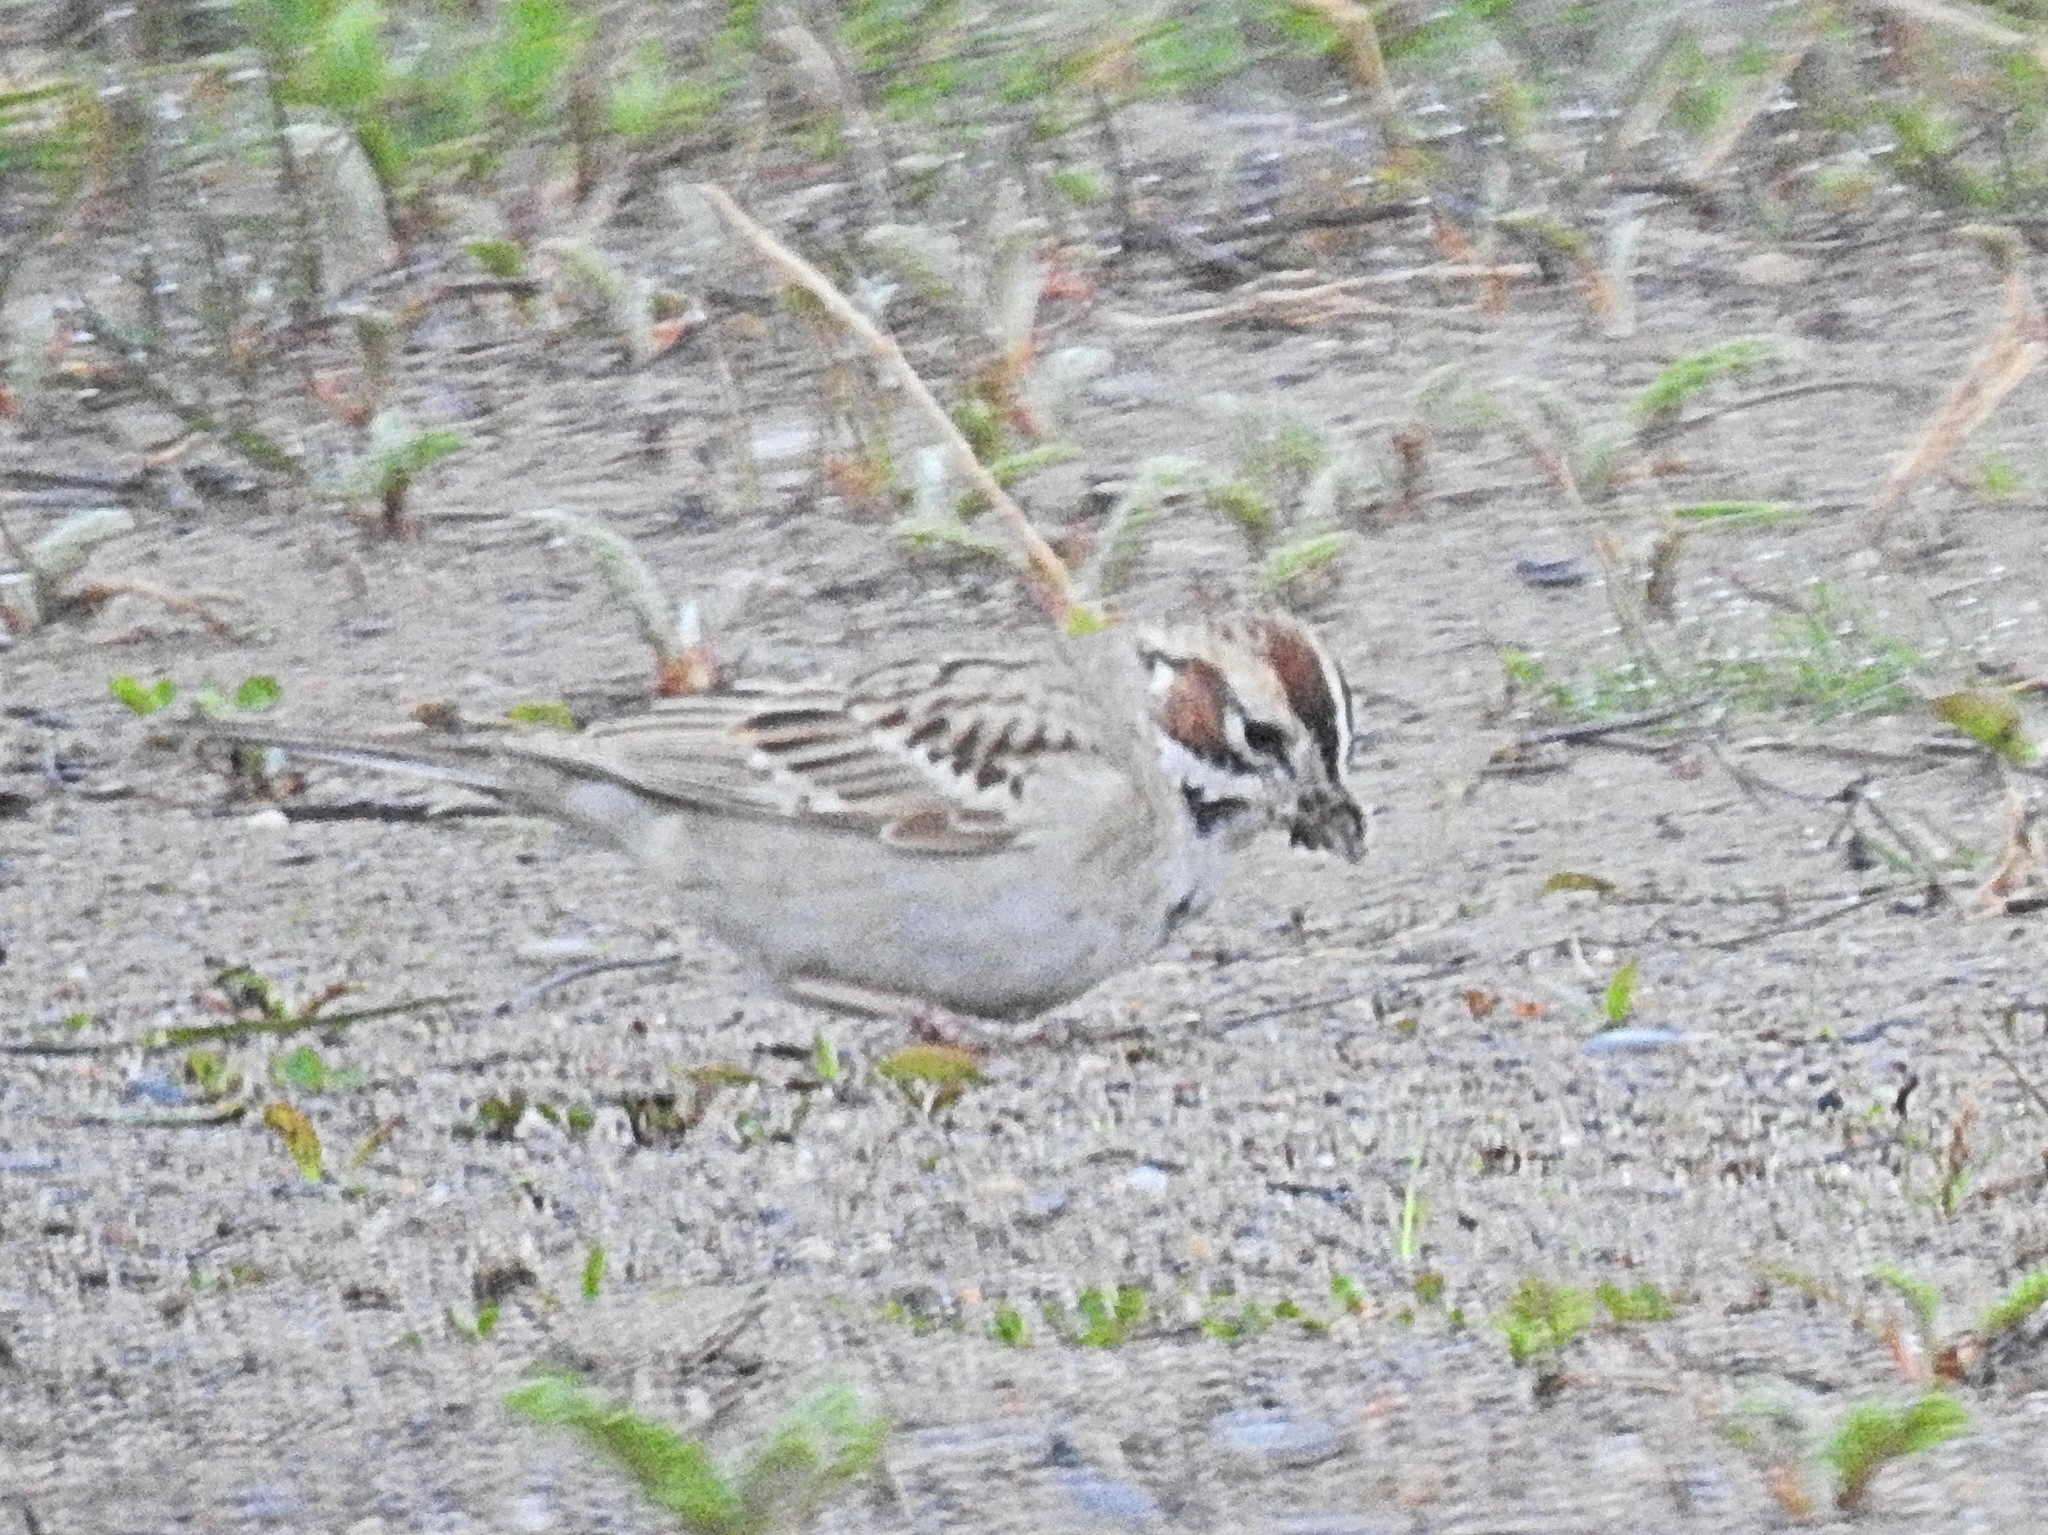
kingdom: Animalia
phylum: Chordata
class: Aves
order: Passeriformes
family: Passerellidae
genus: Chondestes
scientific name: Chondestes grammacus
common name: Lark sparrow
